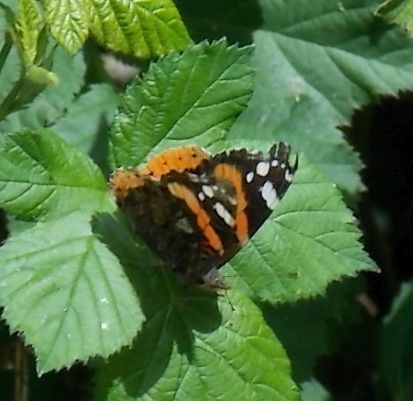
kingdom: Animalia
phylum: Arthropoda
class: Insecta
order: Lepidoptera
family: Nymphalidae
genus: Vanessa
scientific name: Vanessa atalanta
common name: Red admiral
